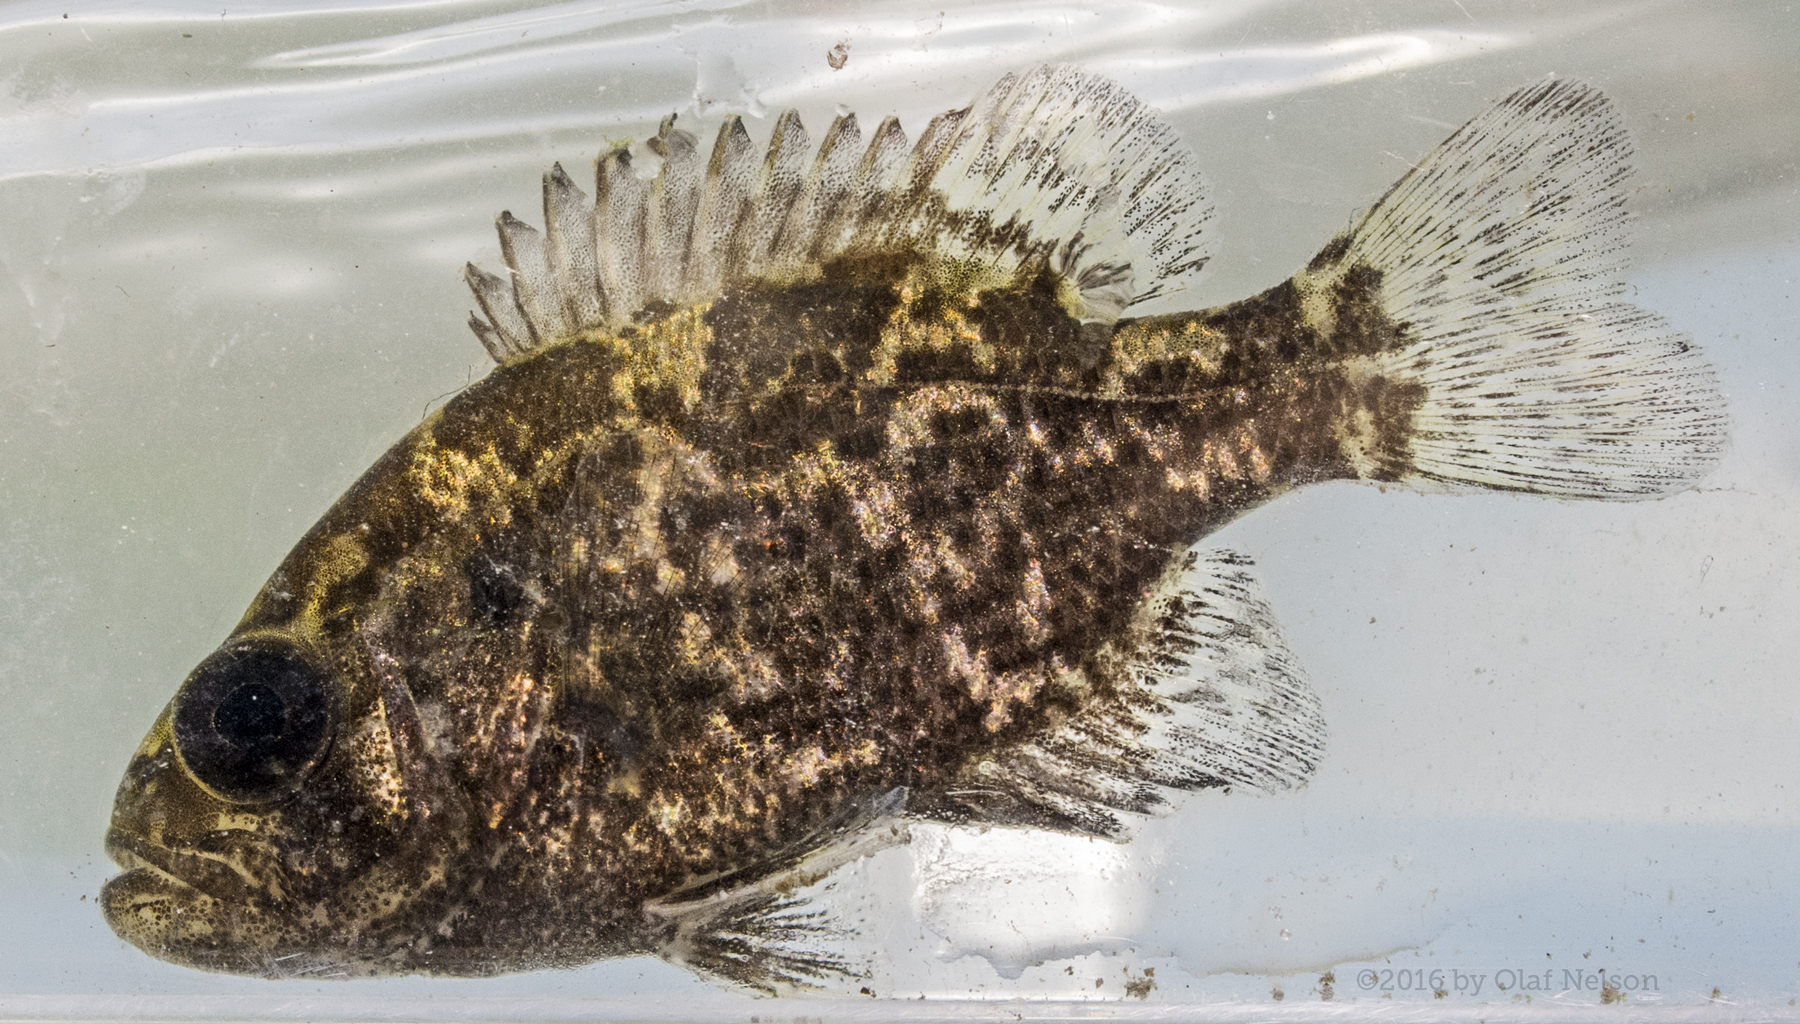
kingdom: Animalia
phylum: Chordata
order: Perciformes
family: Centrarchidae
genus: Ambloplites
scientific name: Ambloplites rupestris
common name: Rock bass
